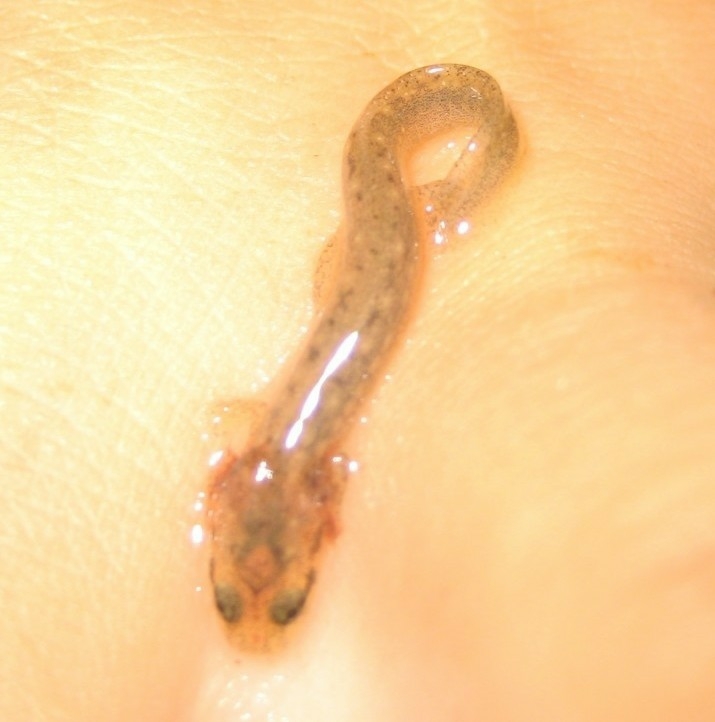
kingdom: Animalia
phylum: Chordata
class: Amphibia
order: Caudata
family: Plethodontidae
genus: Eurycea
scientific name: Eurycea cirrigera
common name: Southern two-lined salamander
